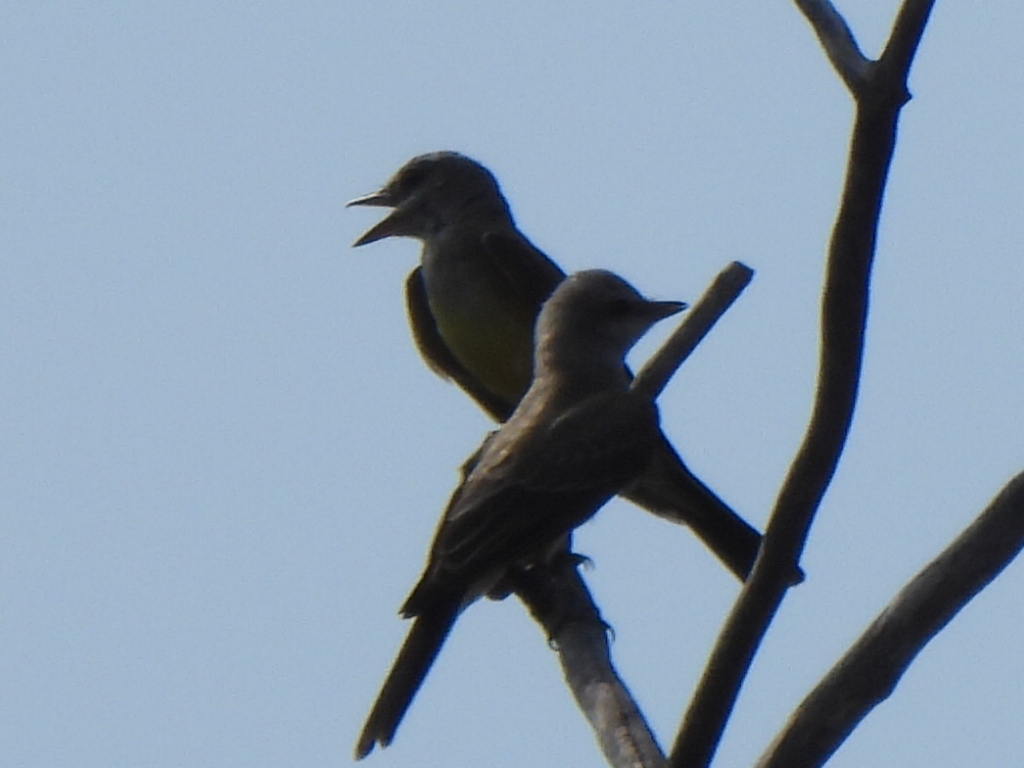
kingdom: Animalia
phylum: Chordata
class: Aves
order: Passeriformes
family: Tyrannidae
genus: Tyrannus
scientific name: Tyrannus verticalis
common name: Western kingbird
